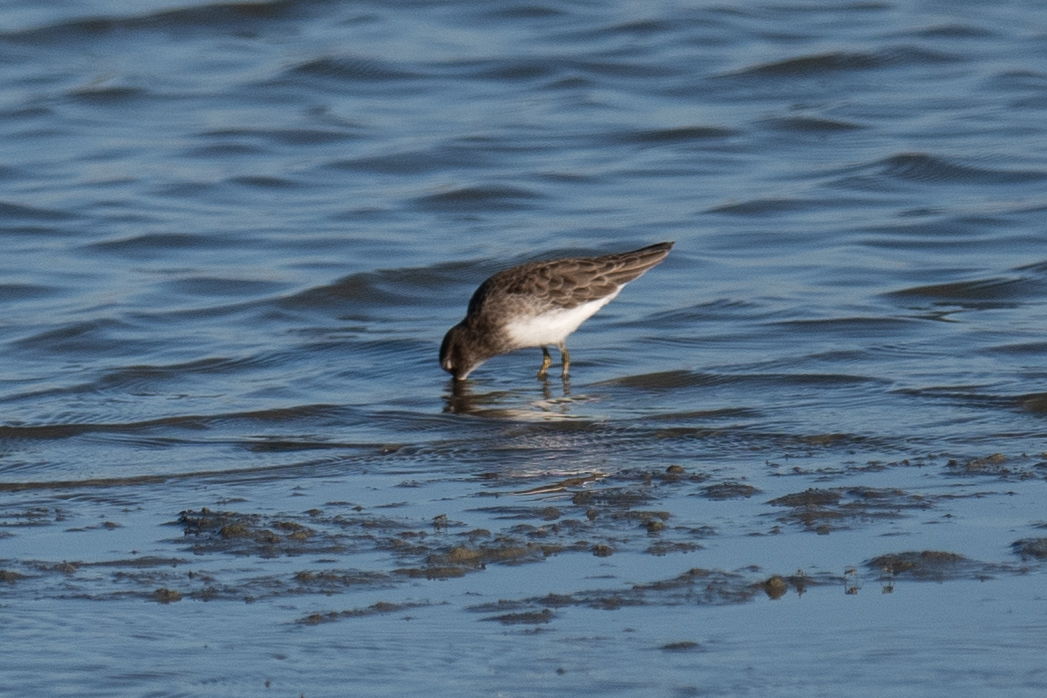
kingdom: Animalia
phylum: Chordata
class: Aves
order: Charadriiformes
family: Scolopacidae
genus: Calidris
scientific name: Calidris minutilla
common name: Least sandpiper
